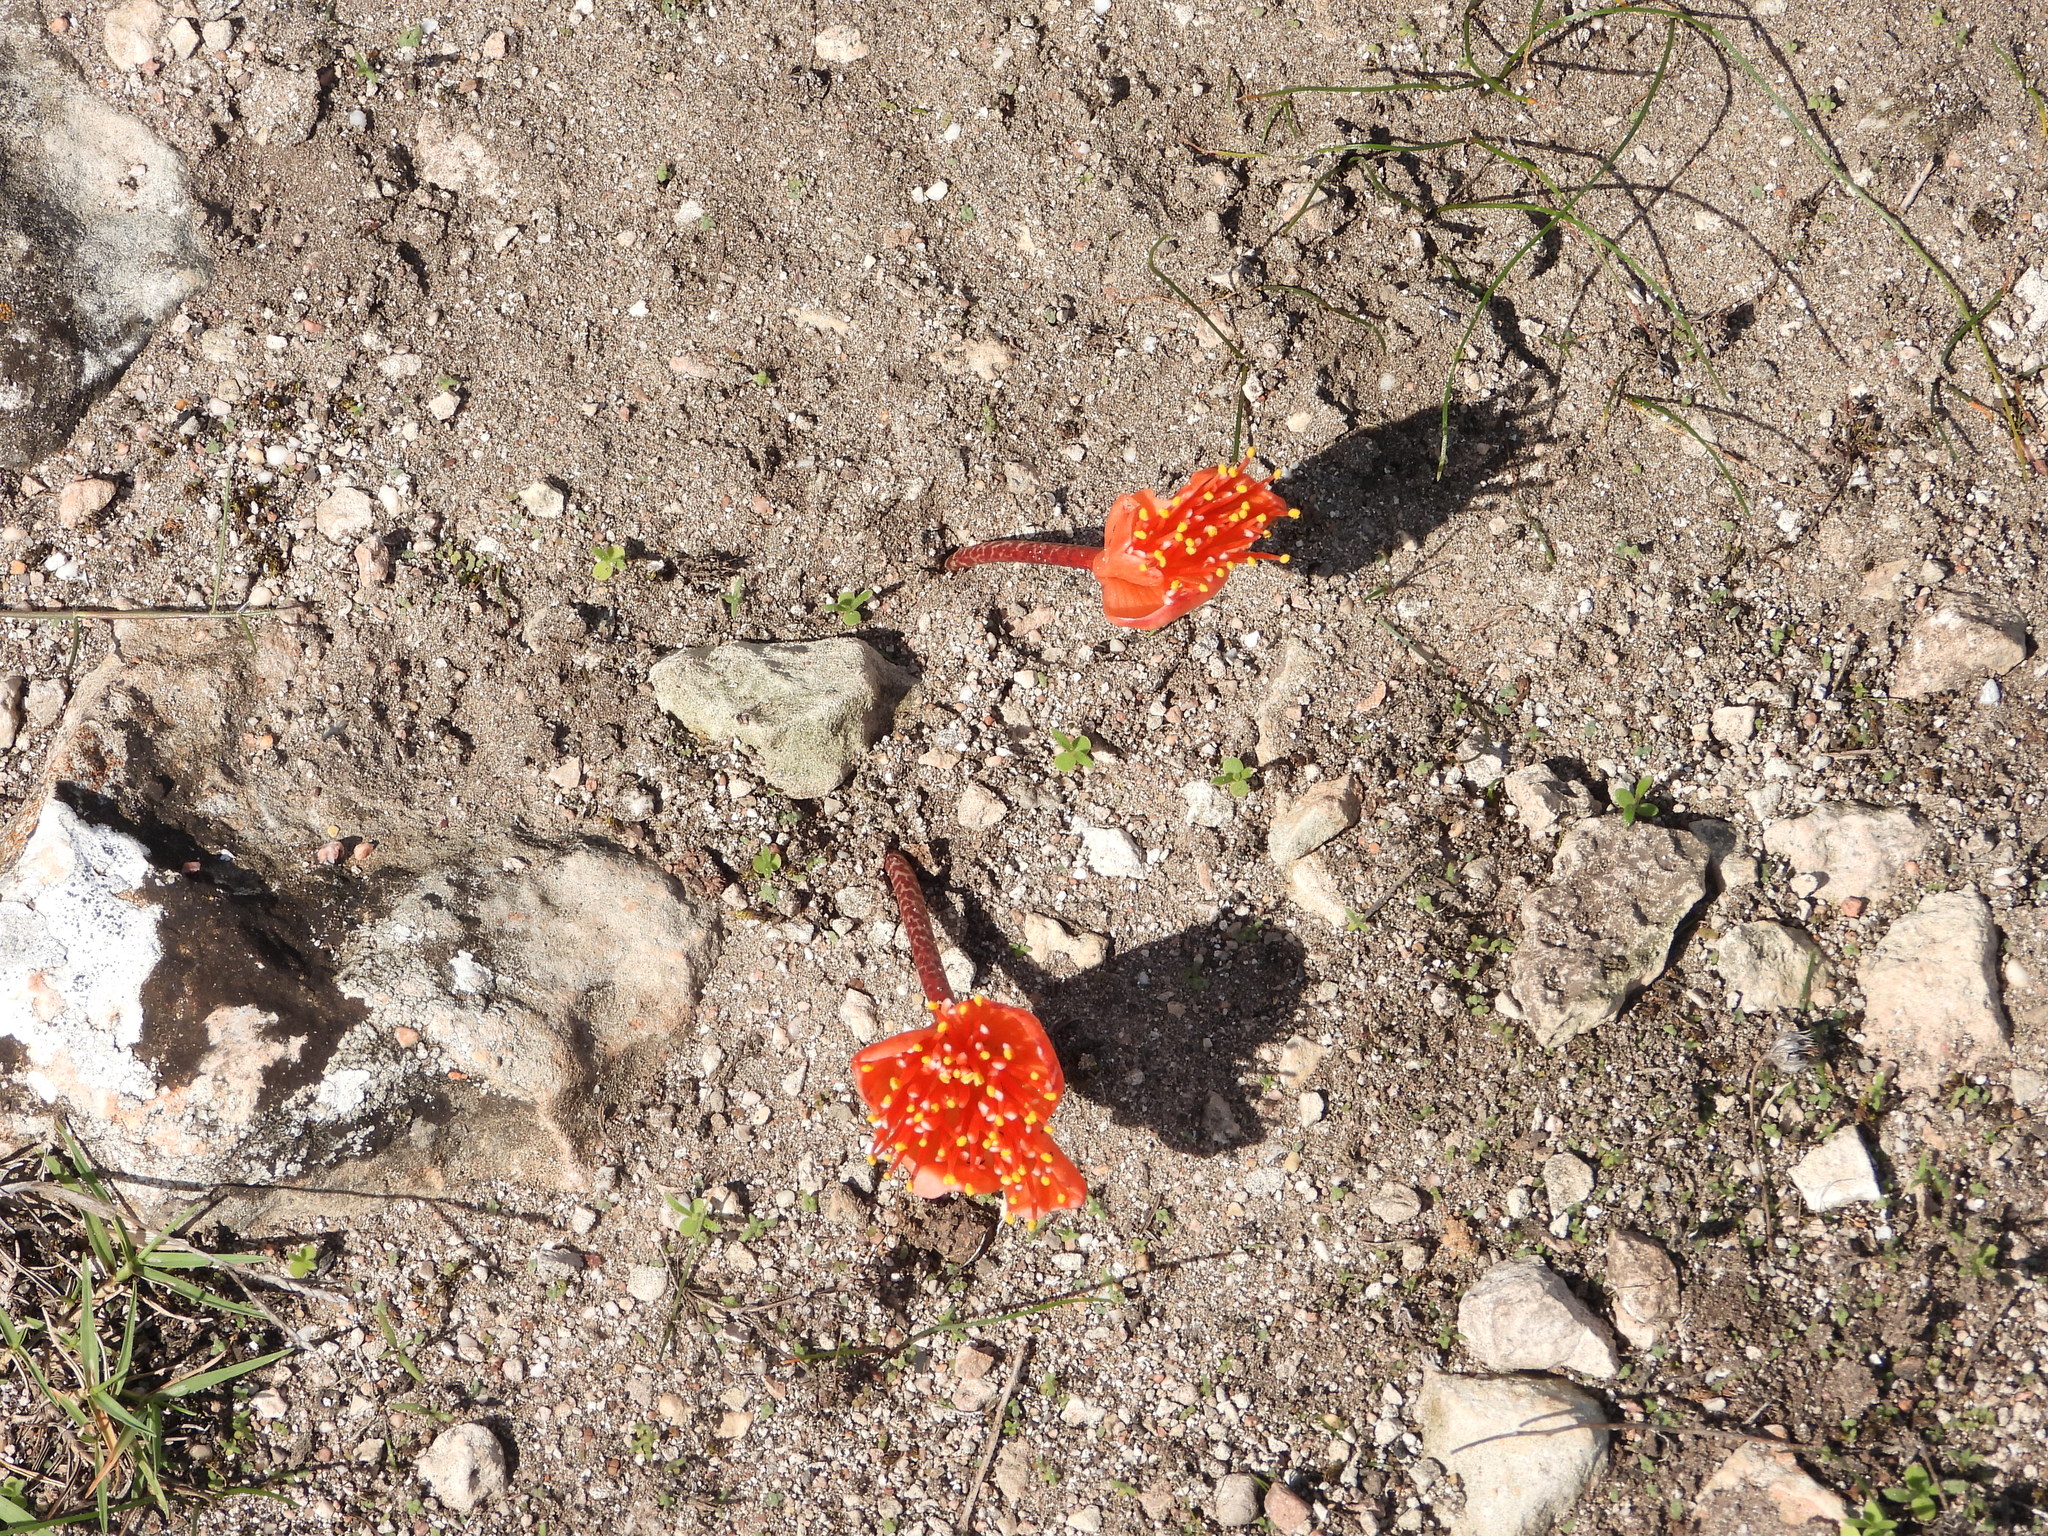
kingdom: Plantae
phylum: Tracheophyta
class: Liliopsida
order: Asparagales
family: Amaryllidaceae
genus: Haemanthus
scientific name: Haemanthus coccineus
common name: Cape-tulip
